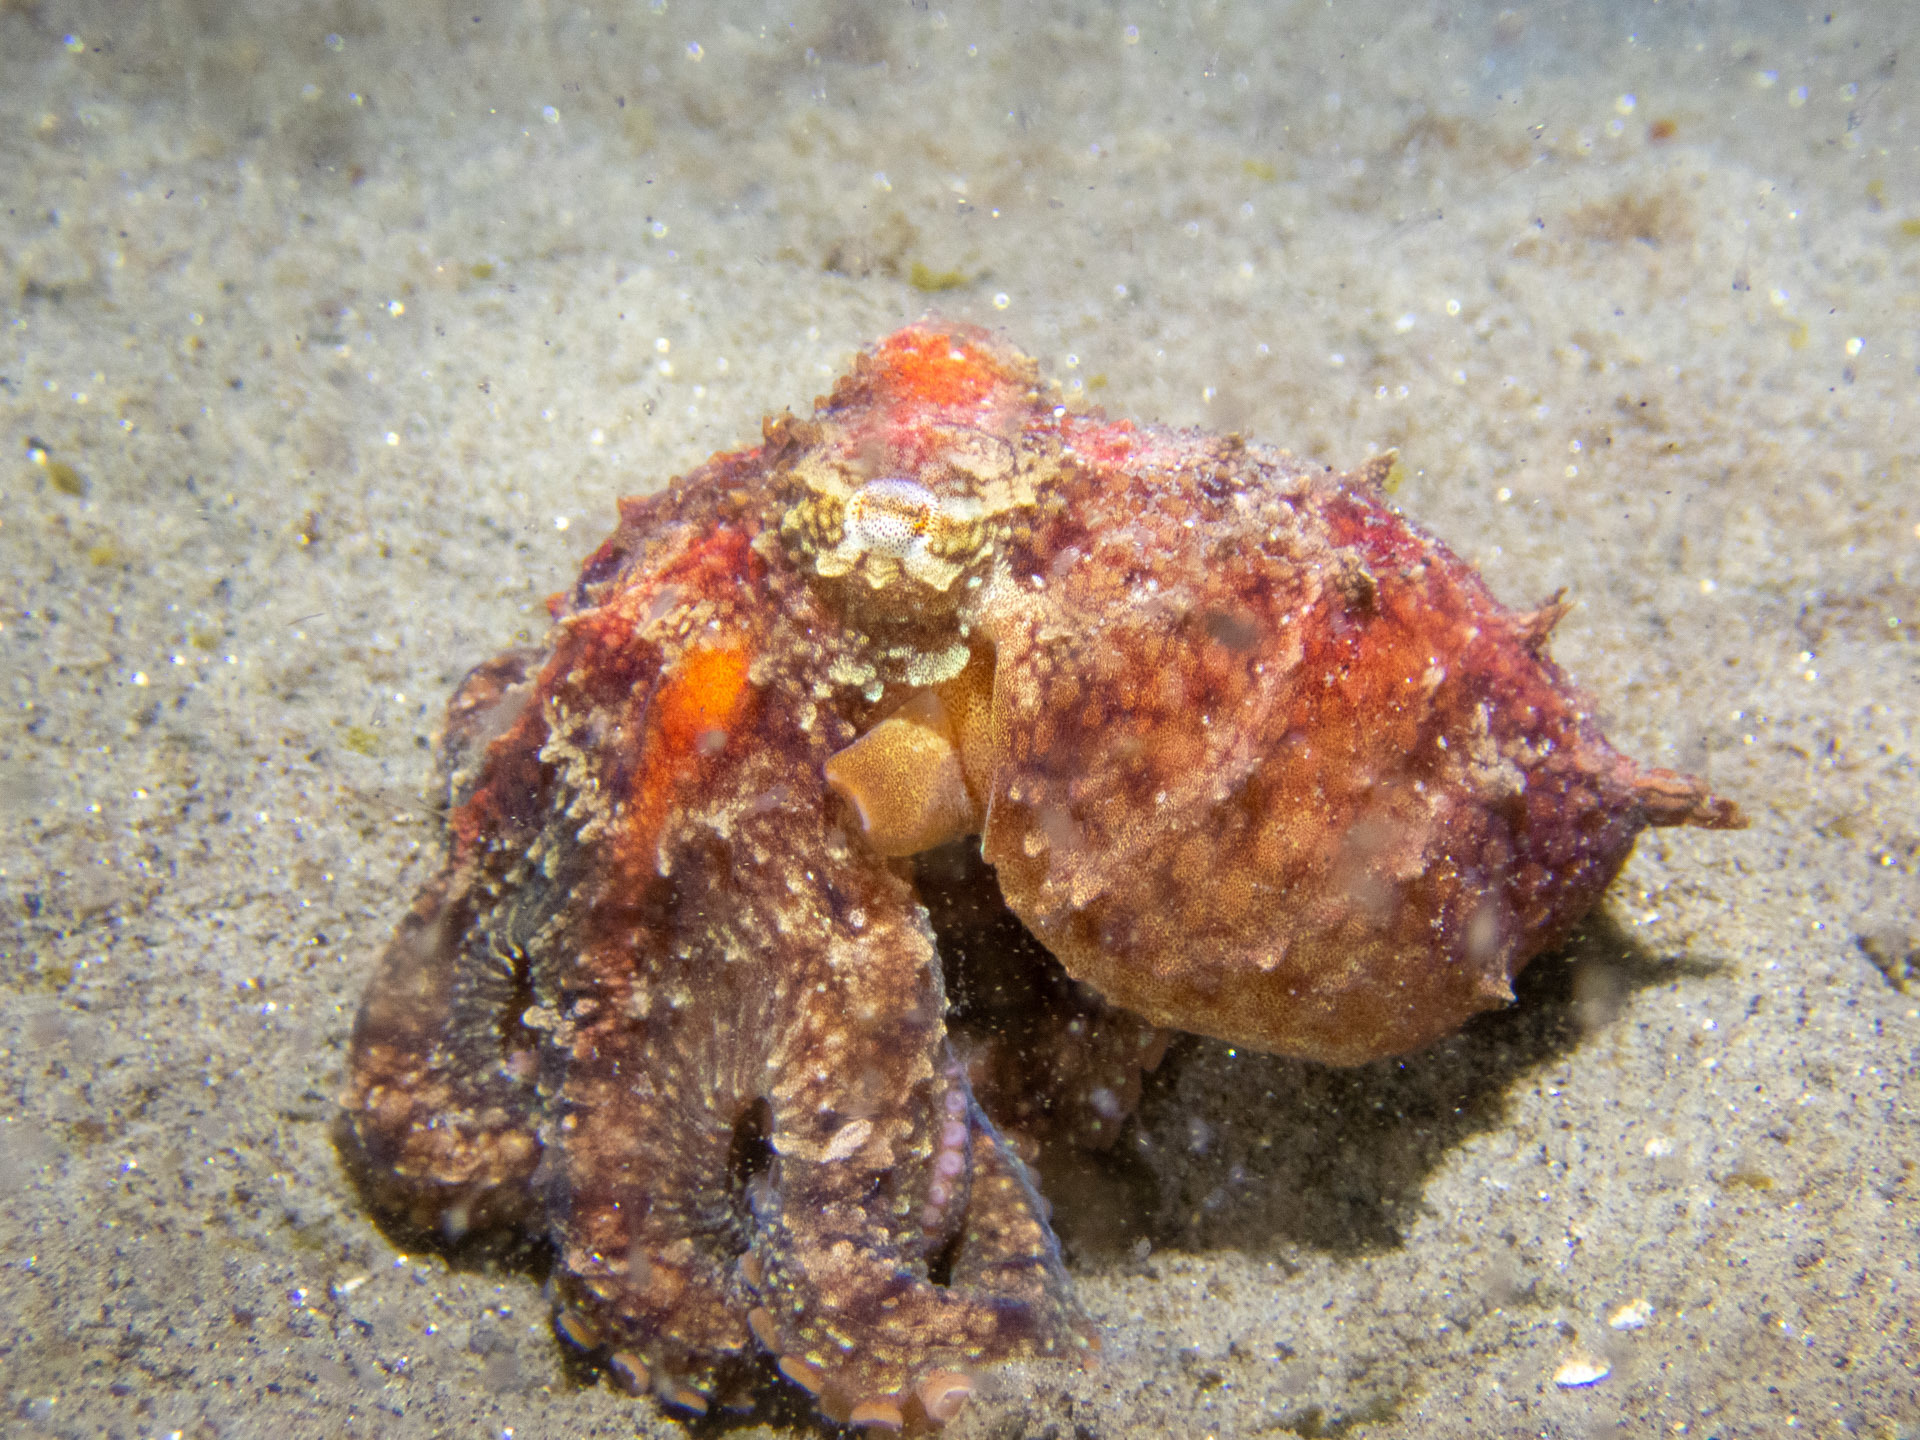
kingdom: Animalia
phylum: Mollusca
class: Cephalopoda
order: Octopoda
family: Octopodidae
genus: Octopus
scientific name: Octopus rubescens
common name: East pacific red octopus
